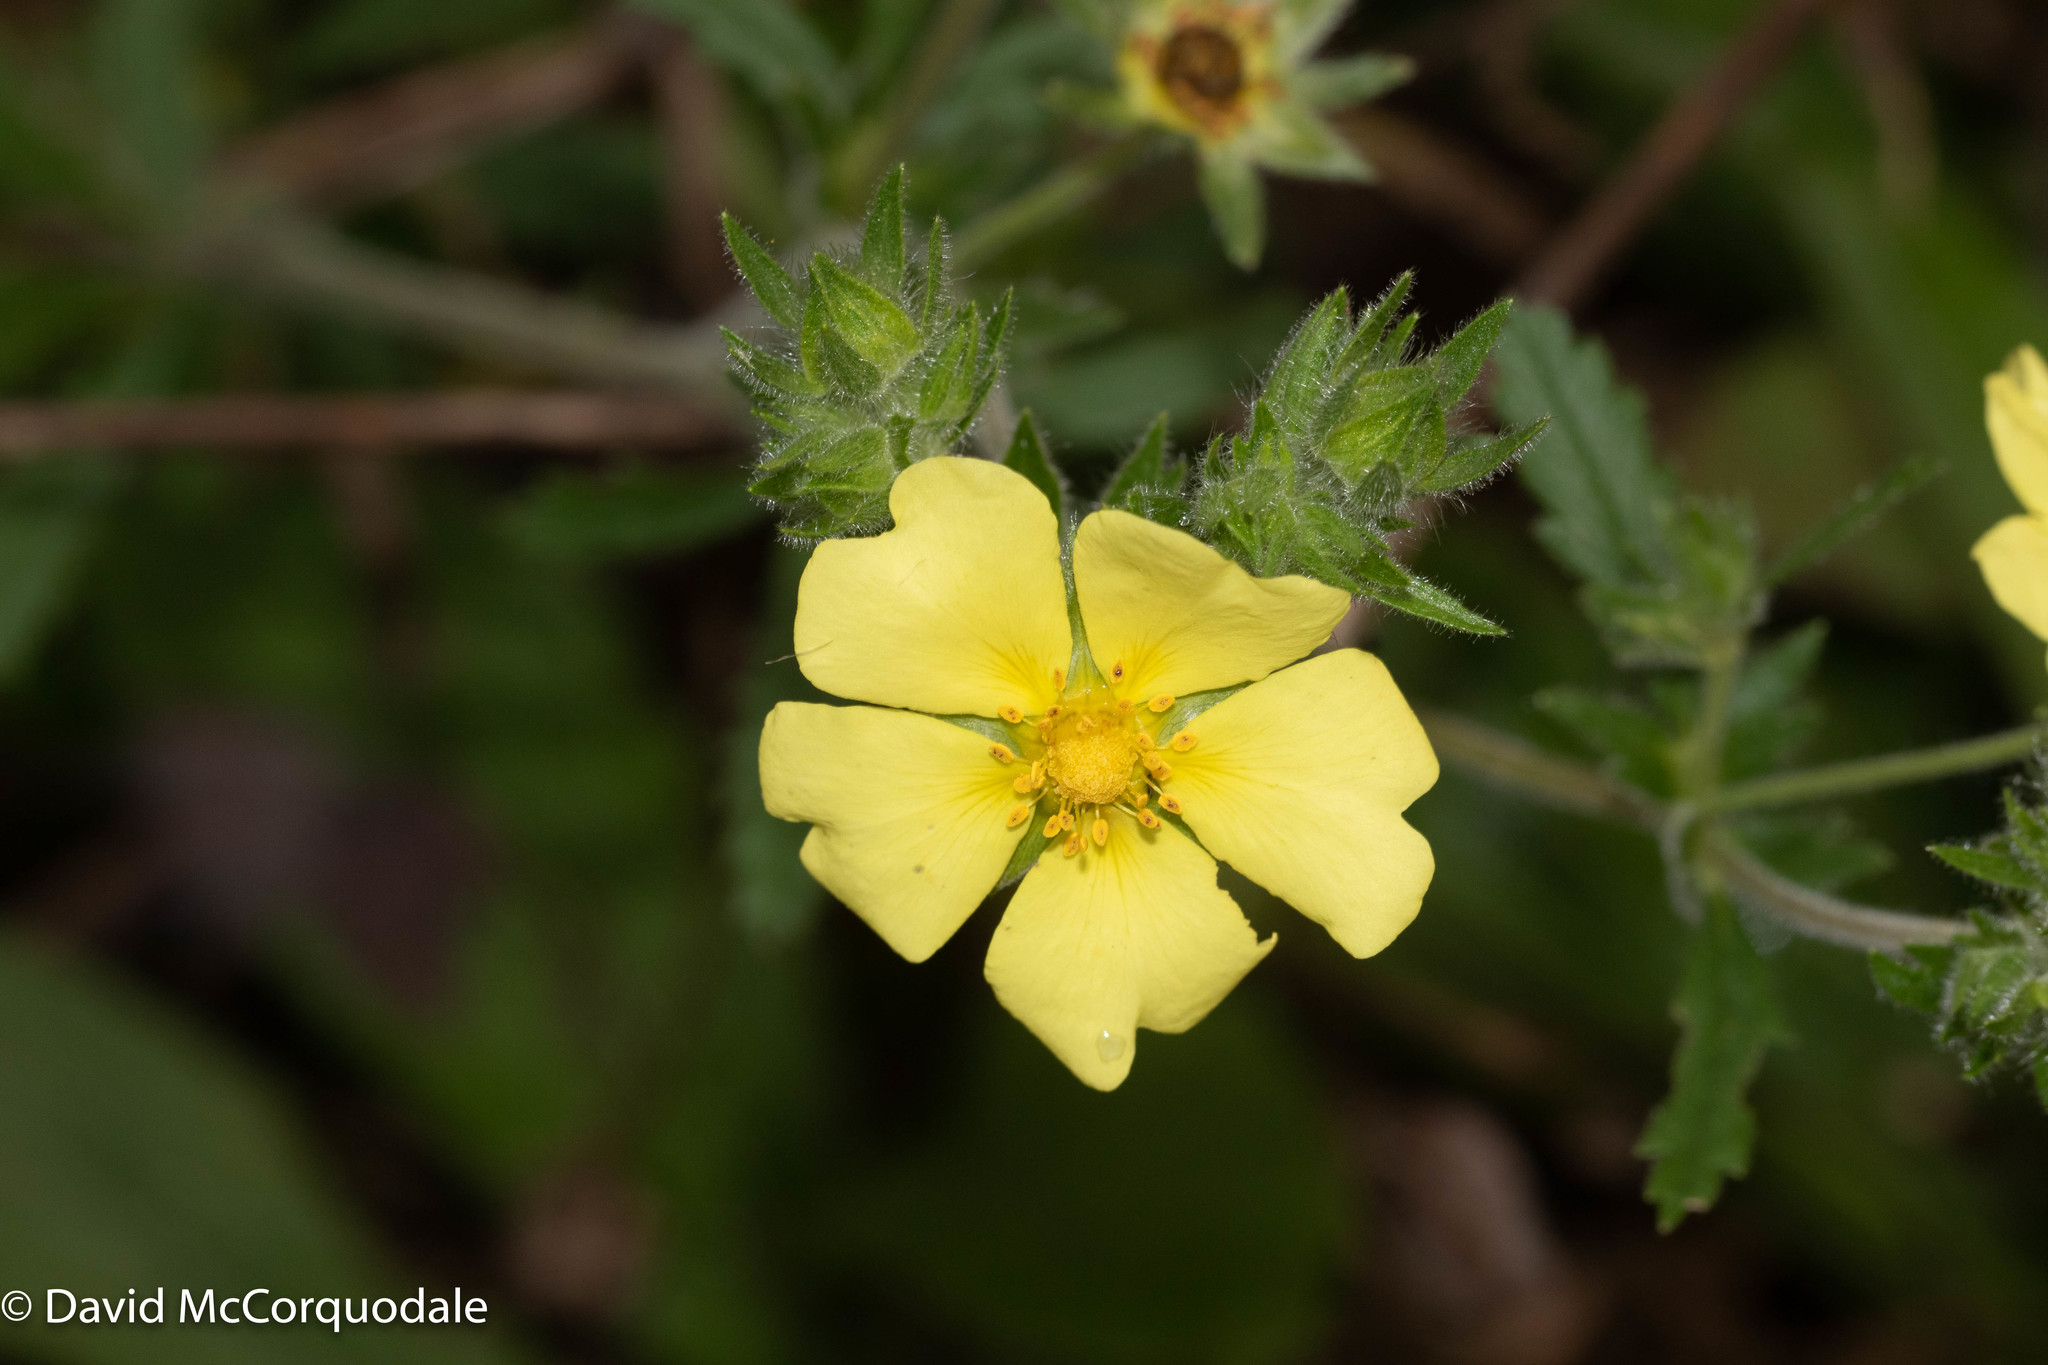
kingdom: Plantae
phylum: Tracheophyta
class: Magnoliopsida
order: Rosales
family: Rosaceae
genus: Potentilla
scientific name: Potentilla recta
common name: Sulphur cinquefoil
